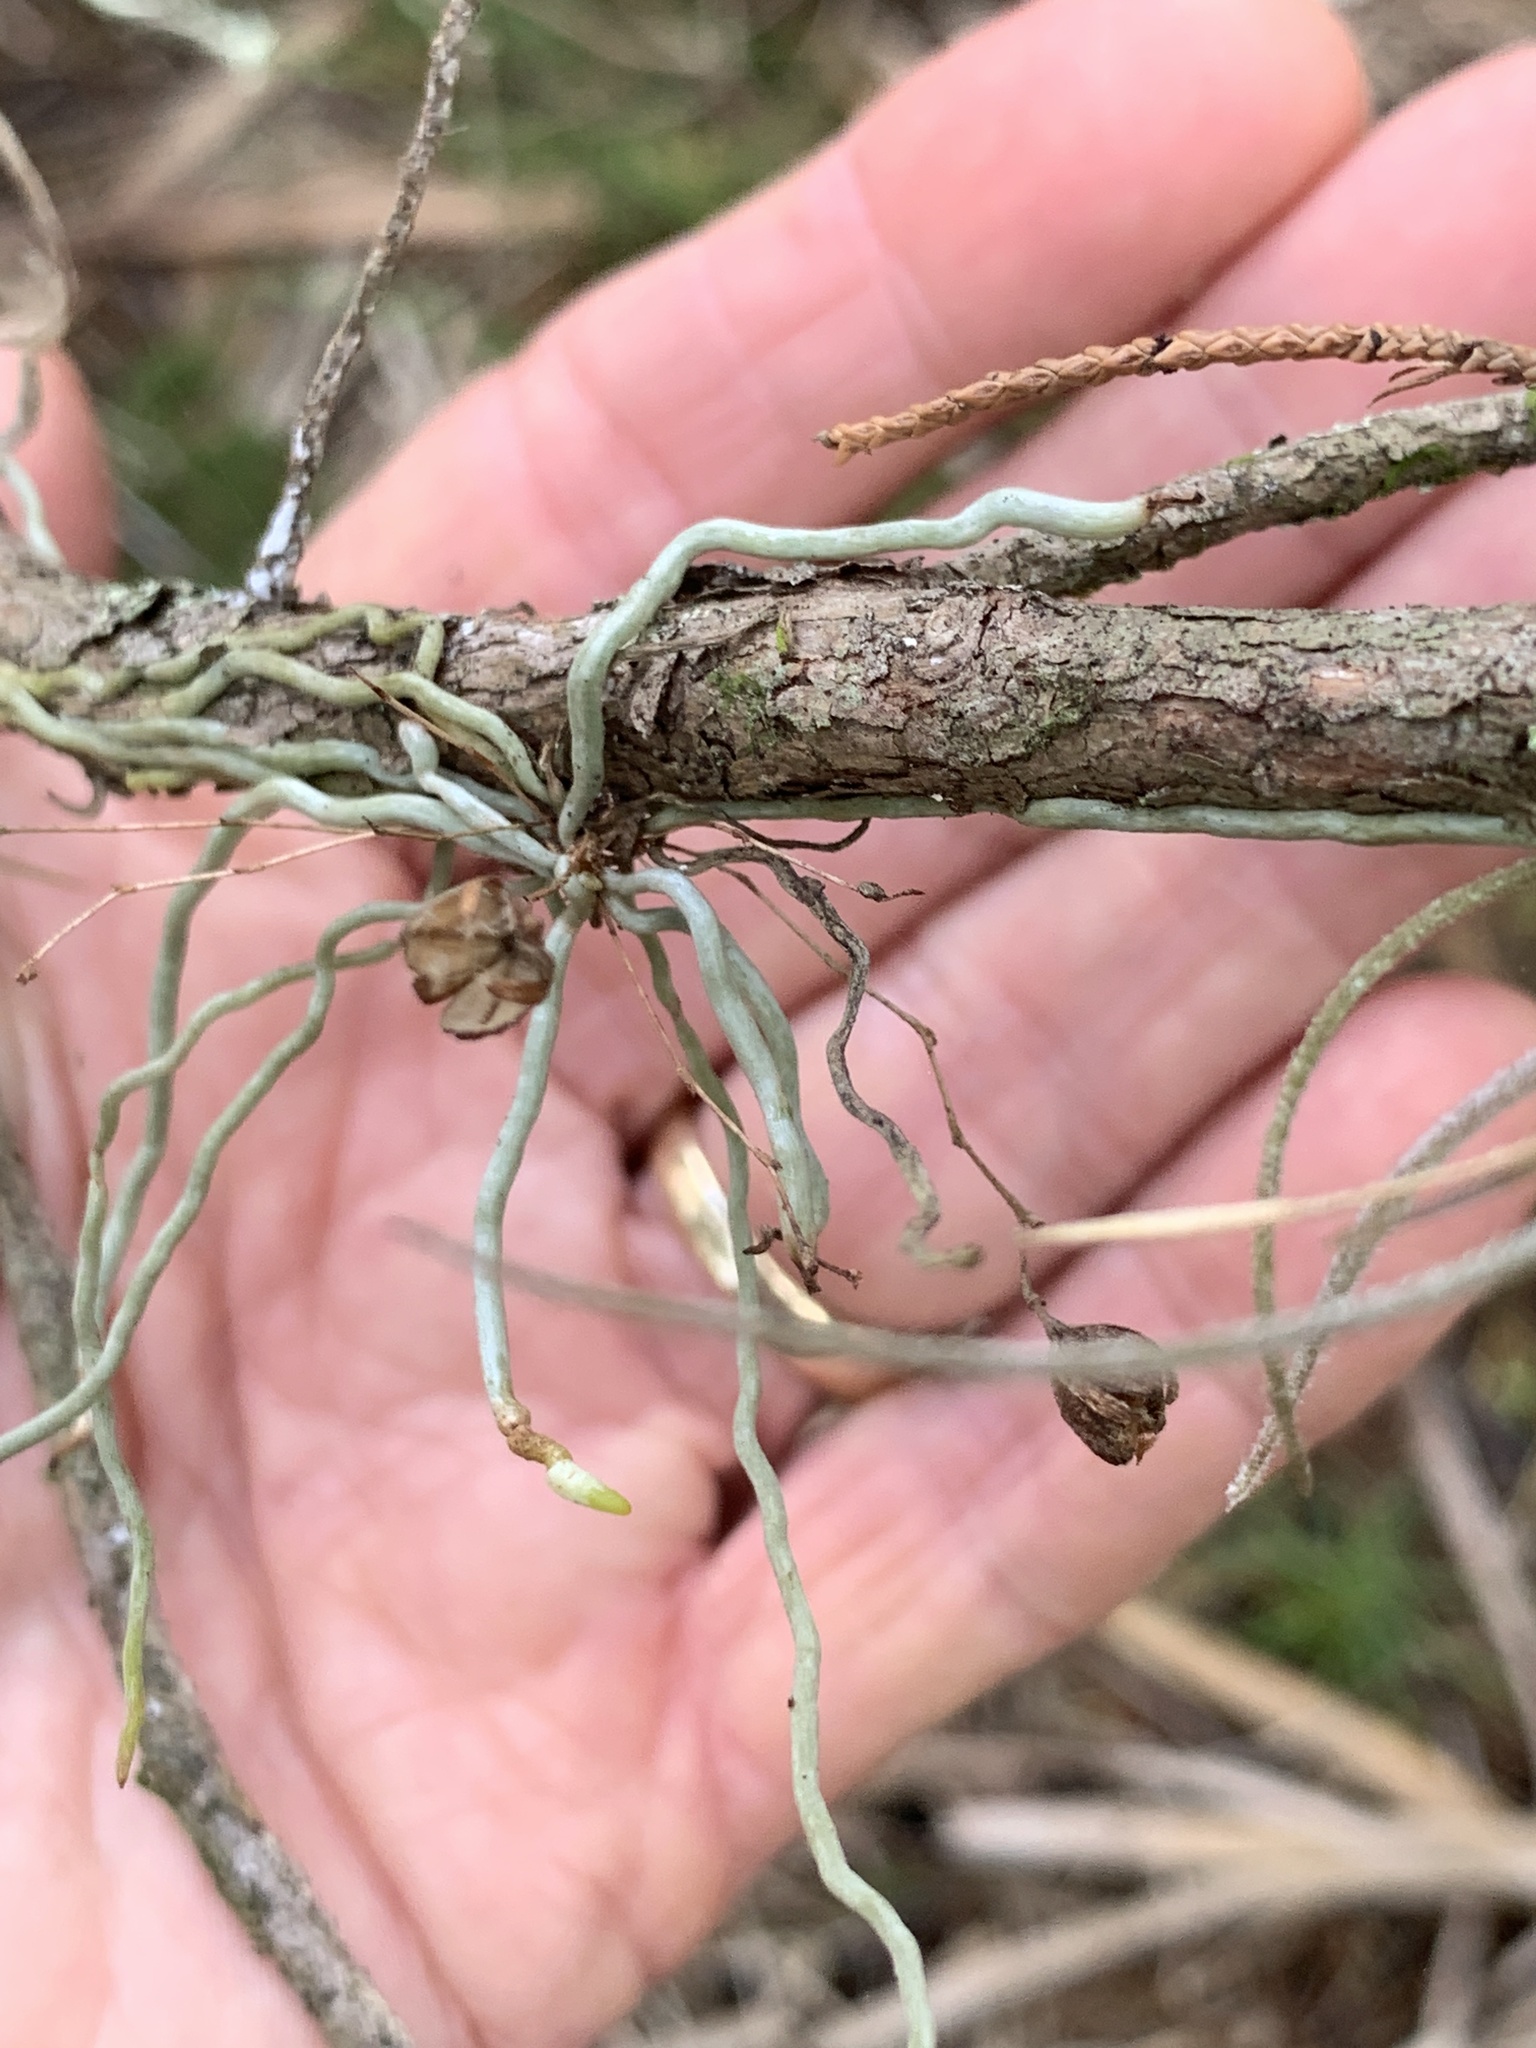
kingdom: Plantae
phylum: Tracheophyta
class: Liliopsida
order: Asparagales
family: Orchidaceae
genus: Dendrophylax
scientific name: Dendrophylax porrectus
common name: Needleroot airplant orchid
